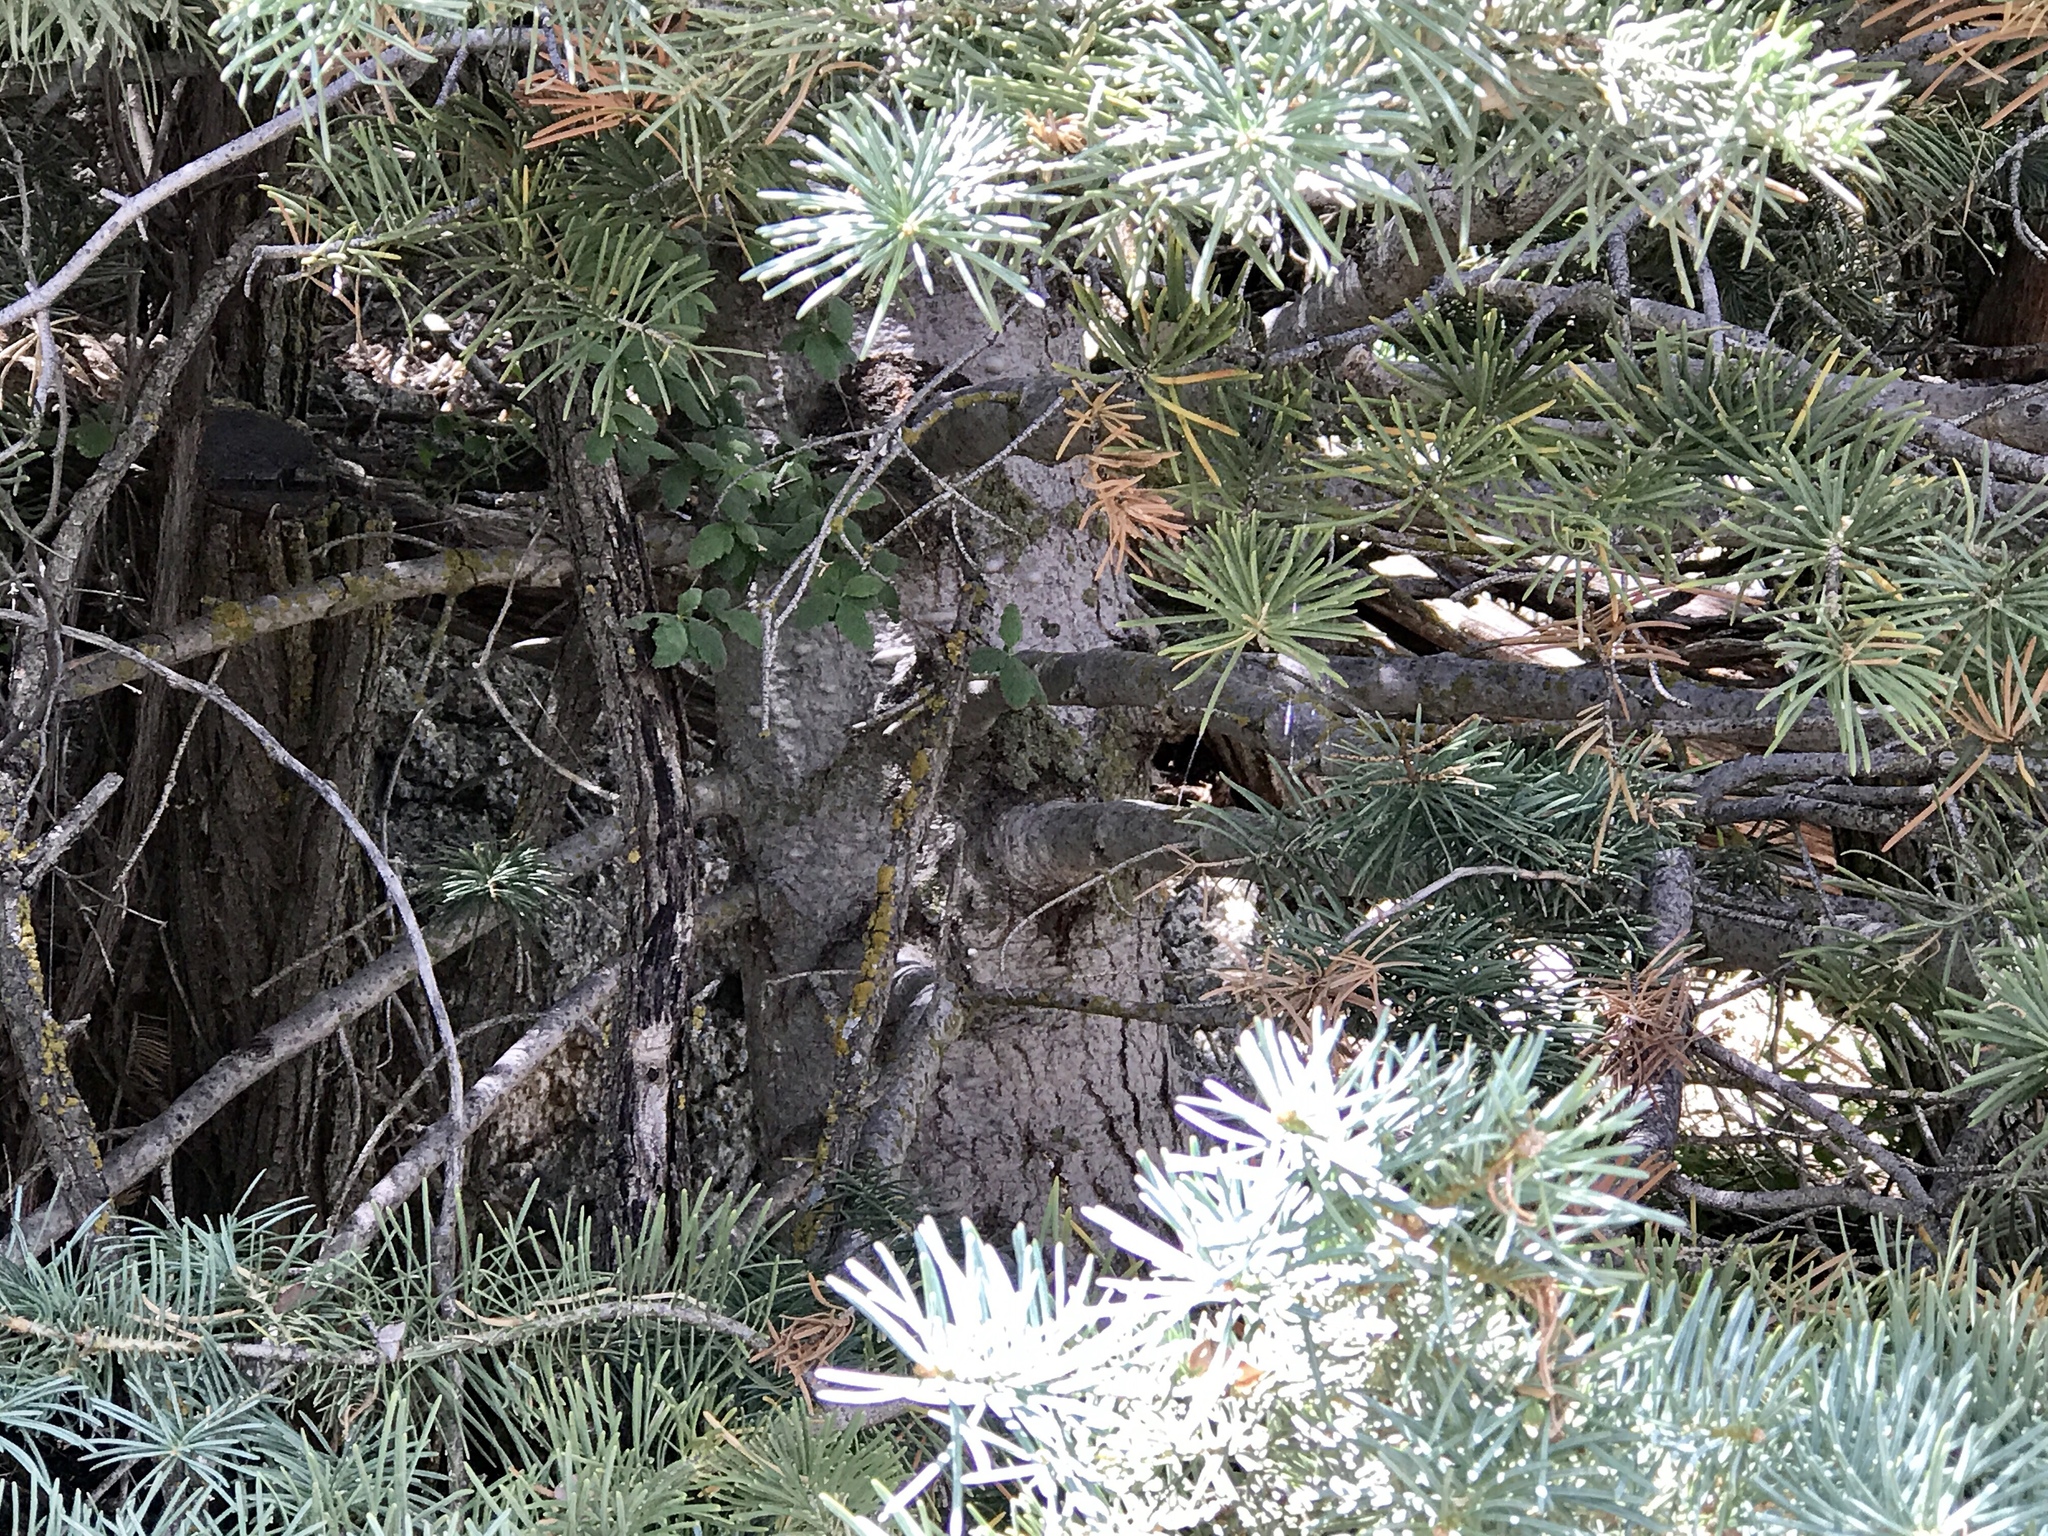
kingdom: Plantae
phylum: Tracheophyta
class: Pinopsida
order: Pinales
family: Pinaceae
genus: Abies
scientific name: Abies concolor
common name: Colorado fir
